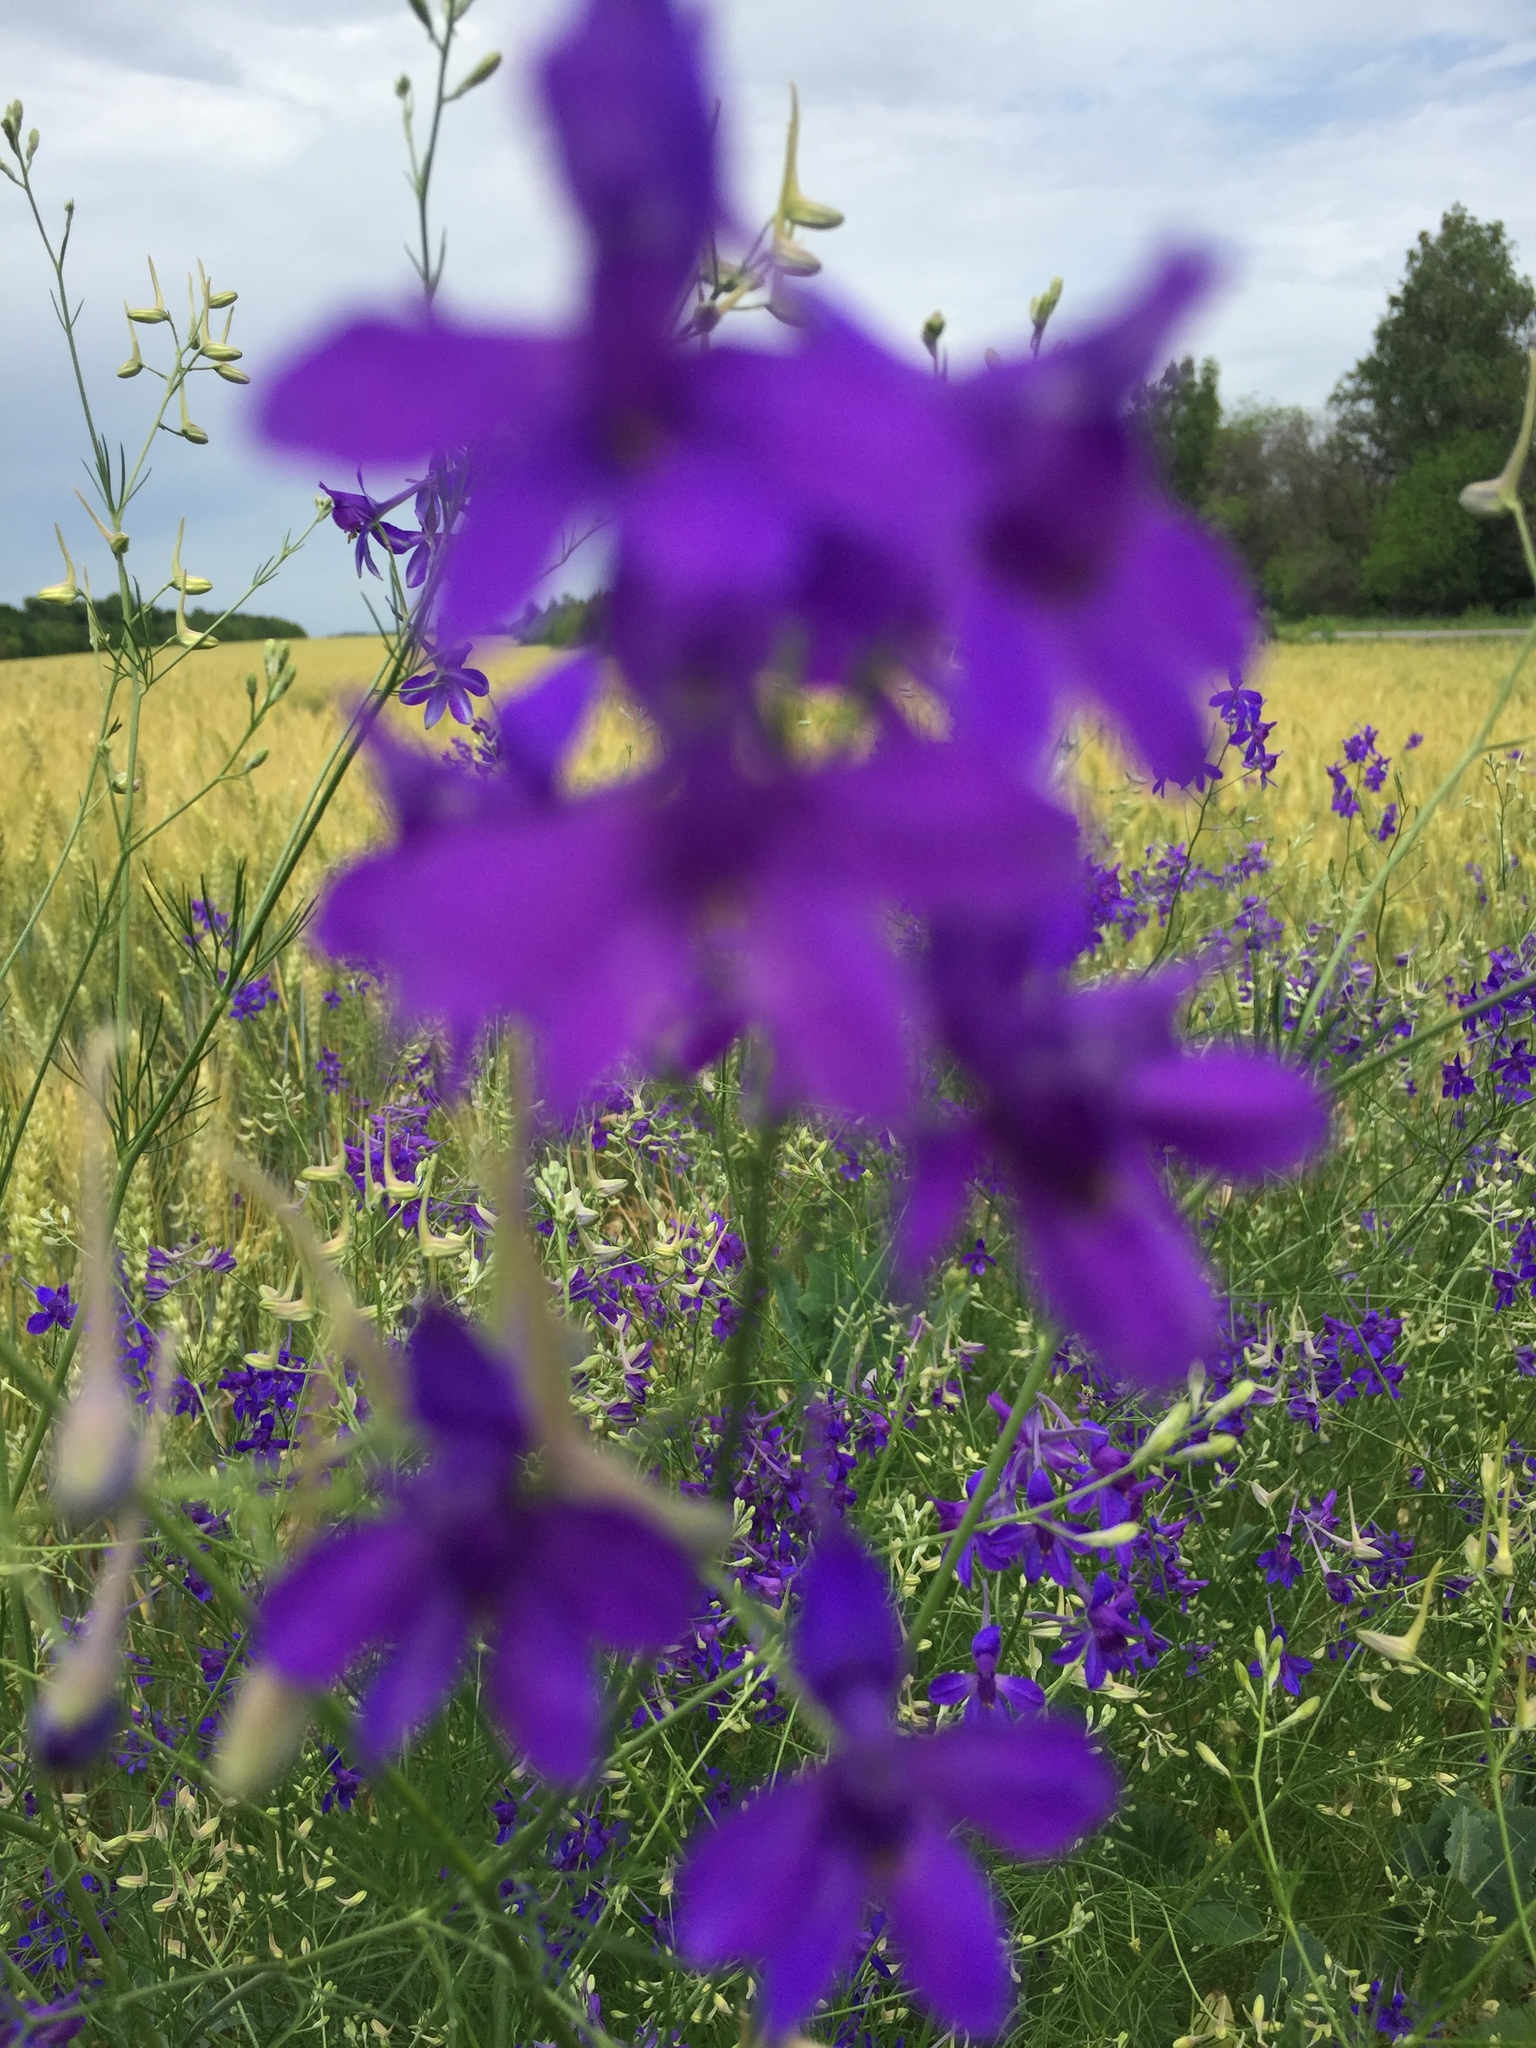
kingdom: Plantae
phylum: Tracheophyta
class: Magnoliopsida
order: Ranunculales
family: Ranunculaceae
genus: Delphinium
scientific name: Delphinium consolida
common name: Branching larkspur
